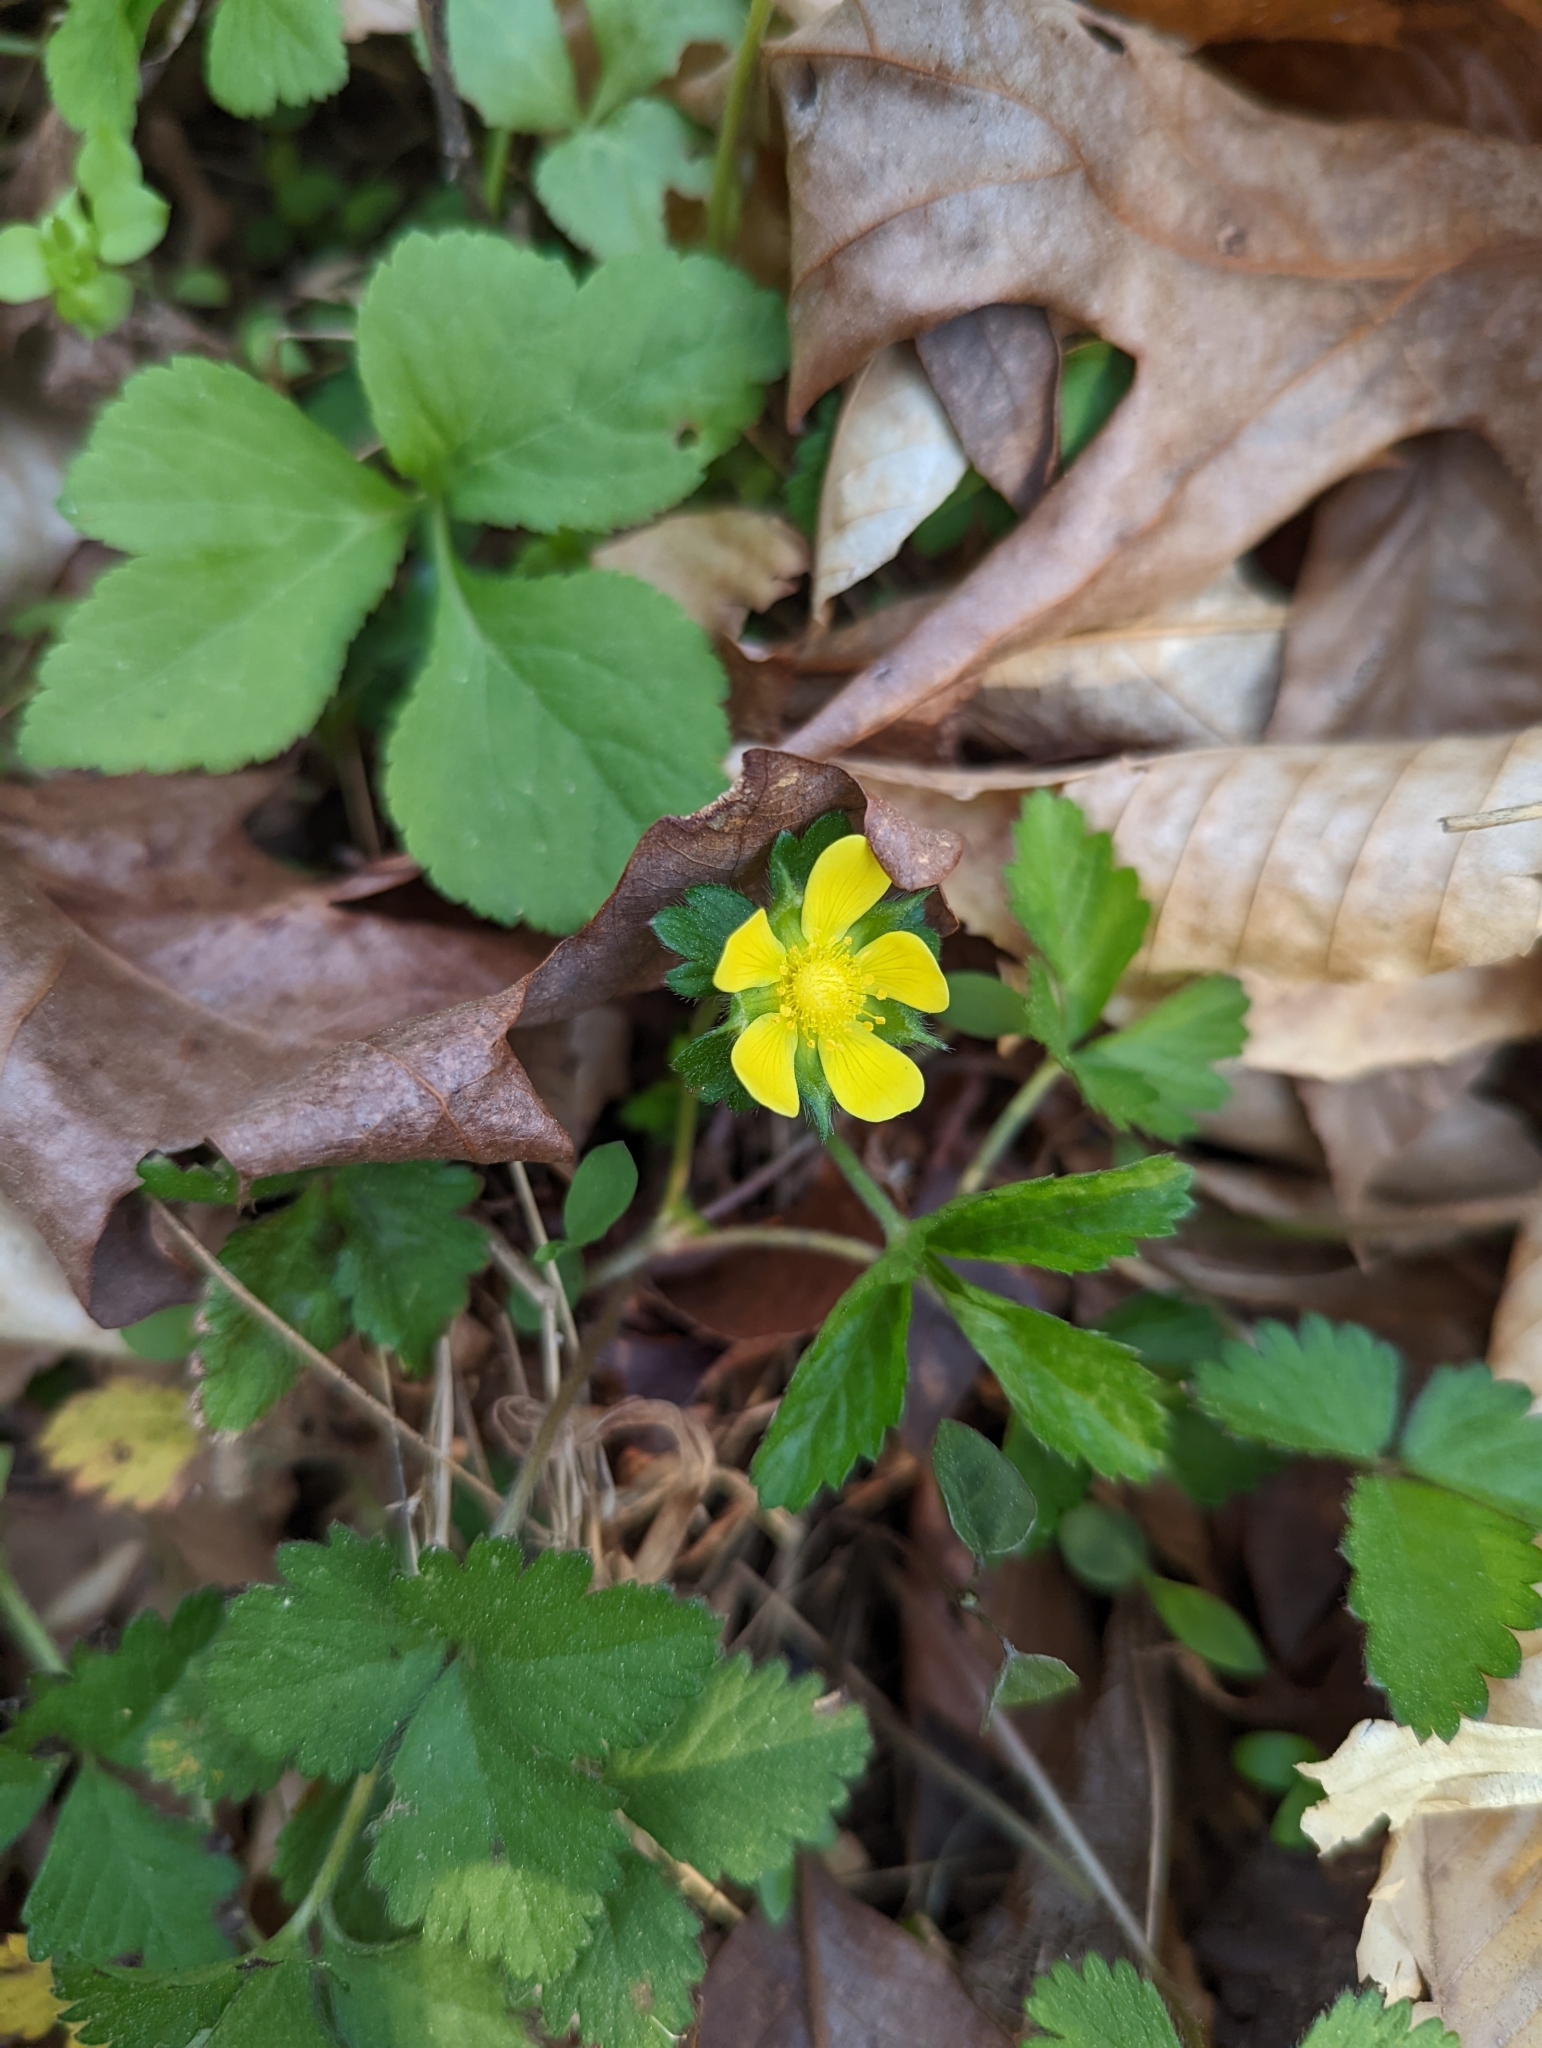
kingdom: Plantae
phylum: Tracheophyta
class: Magnoliopsida
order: Rosales
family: Rosaceae
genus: Potentilla
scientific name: Potentilla indica
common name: Yellow-flowered strawberry
